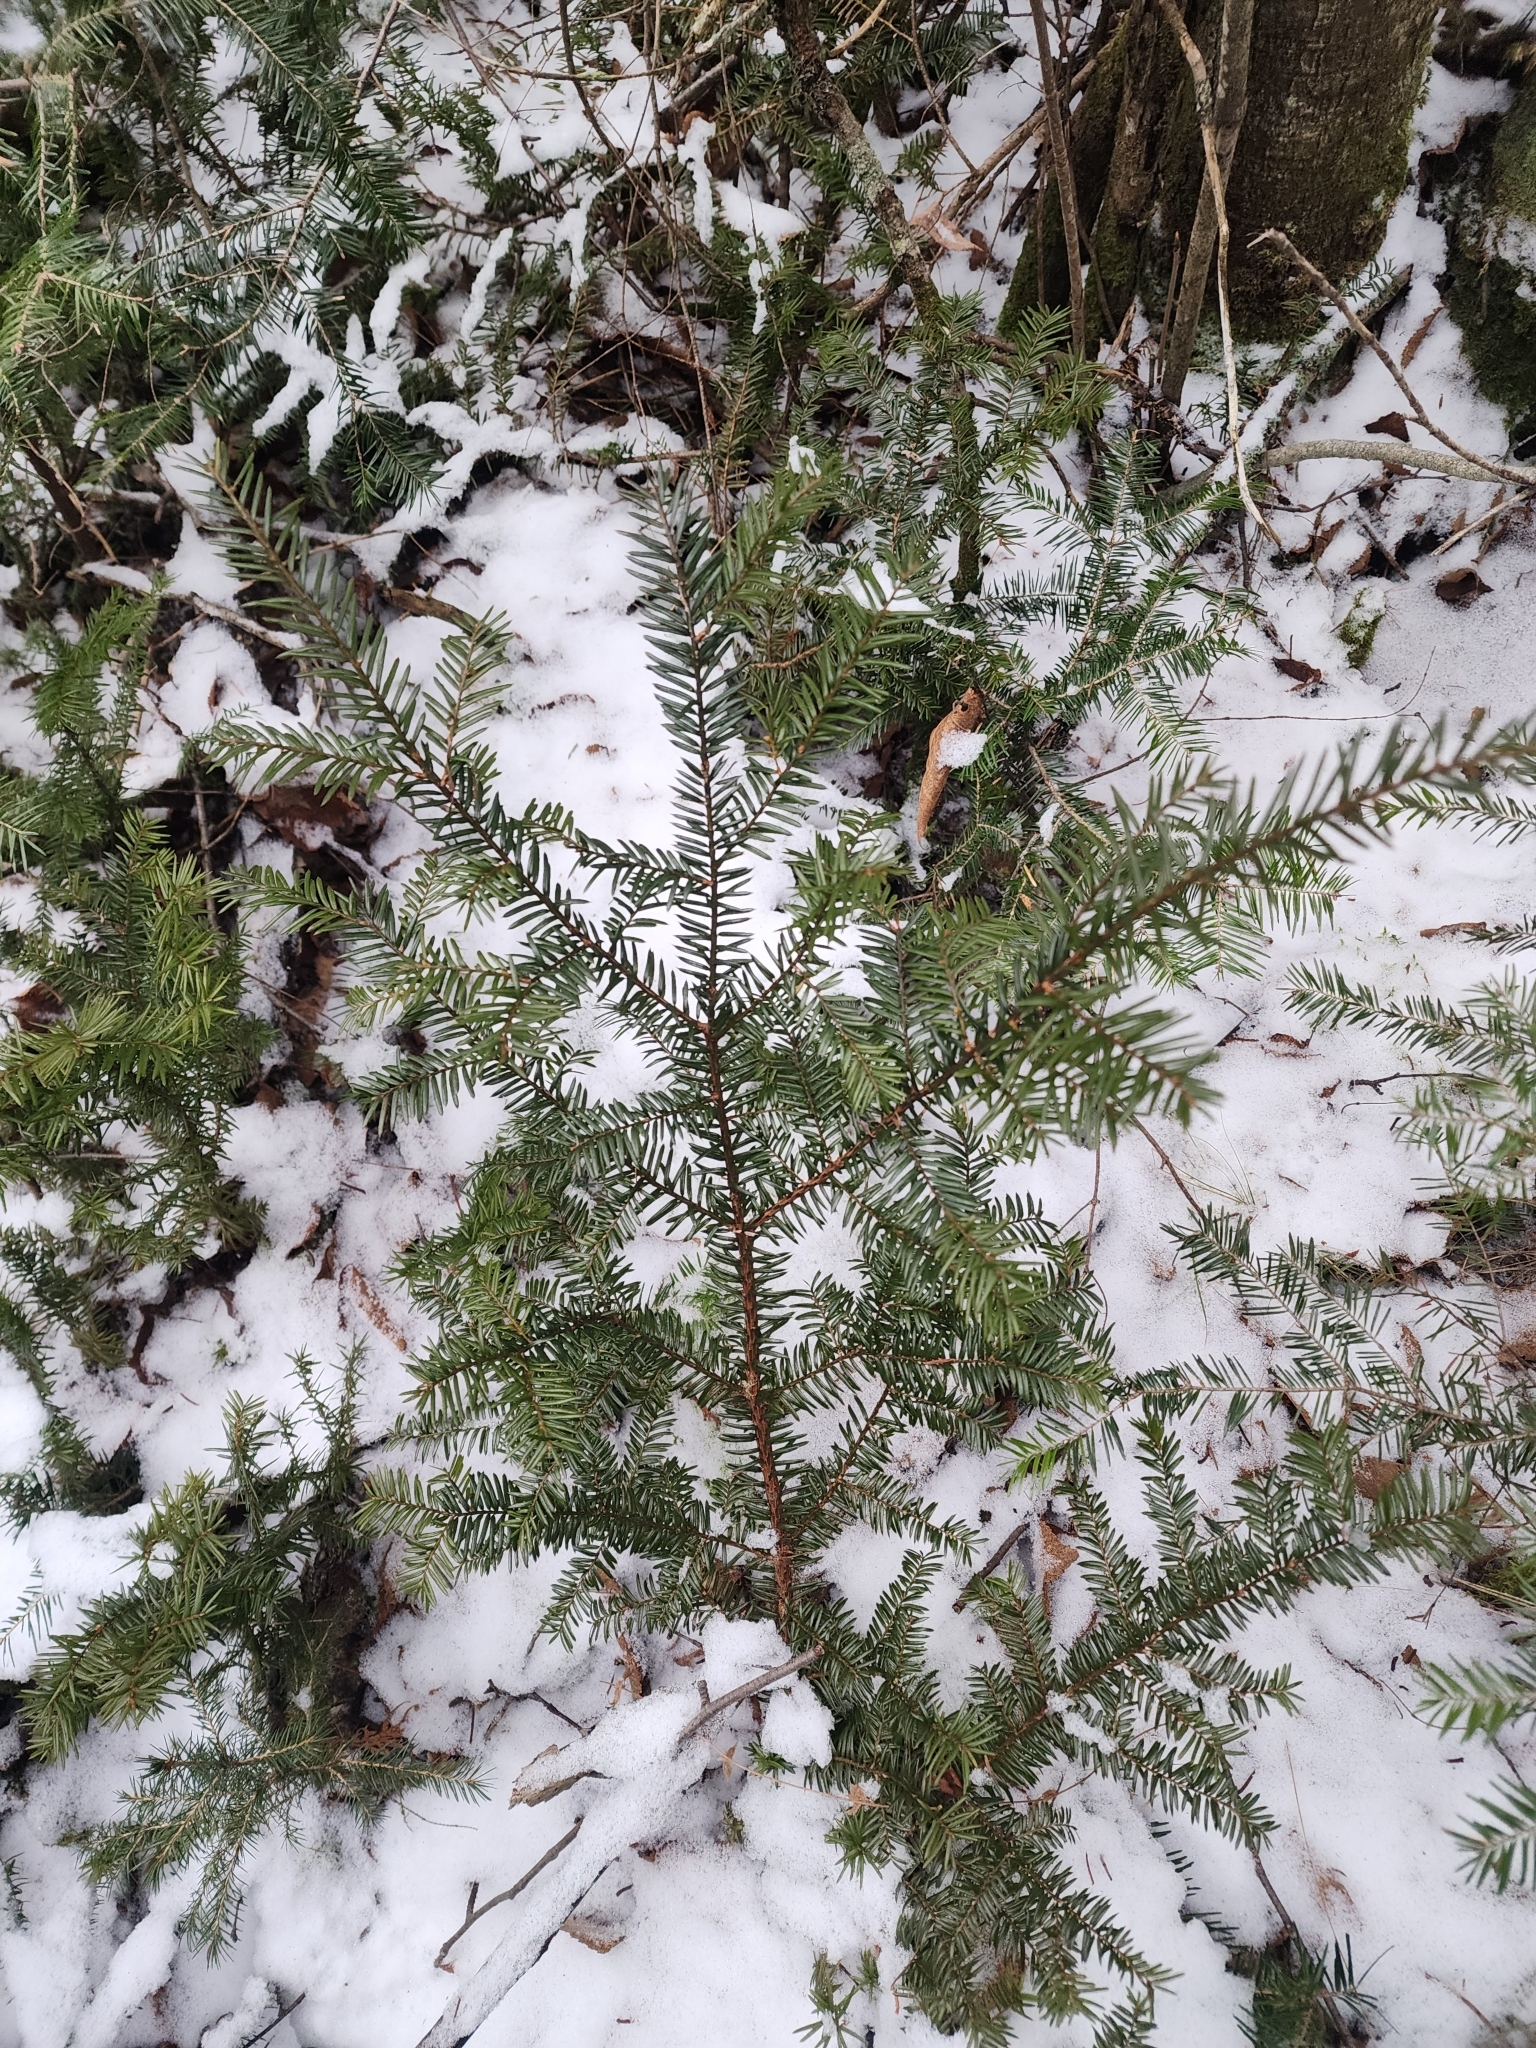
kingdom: Plantae
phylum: Tracheophyta
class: Pinopsida
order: Pinales
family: Taxaceae
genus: Taxus
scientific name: Taxus canadensis
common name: American yew
